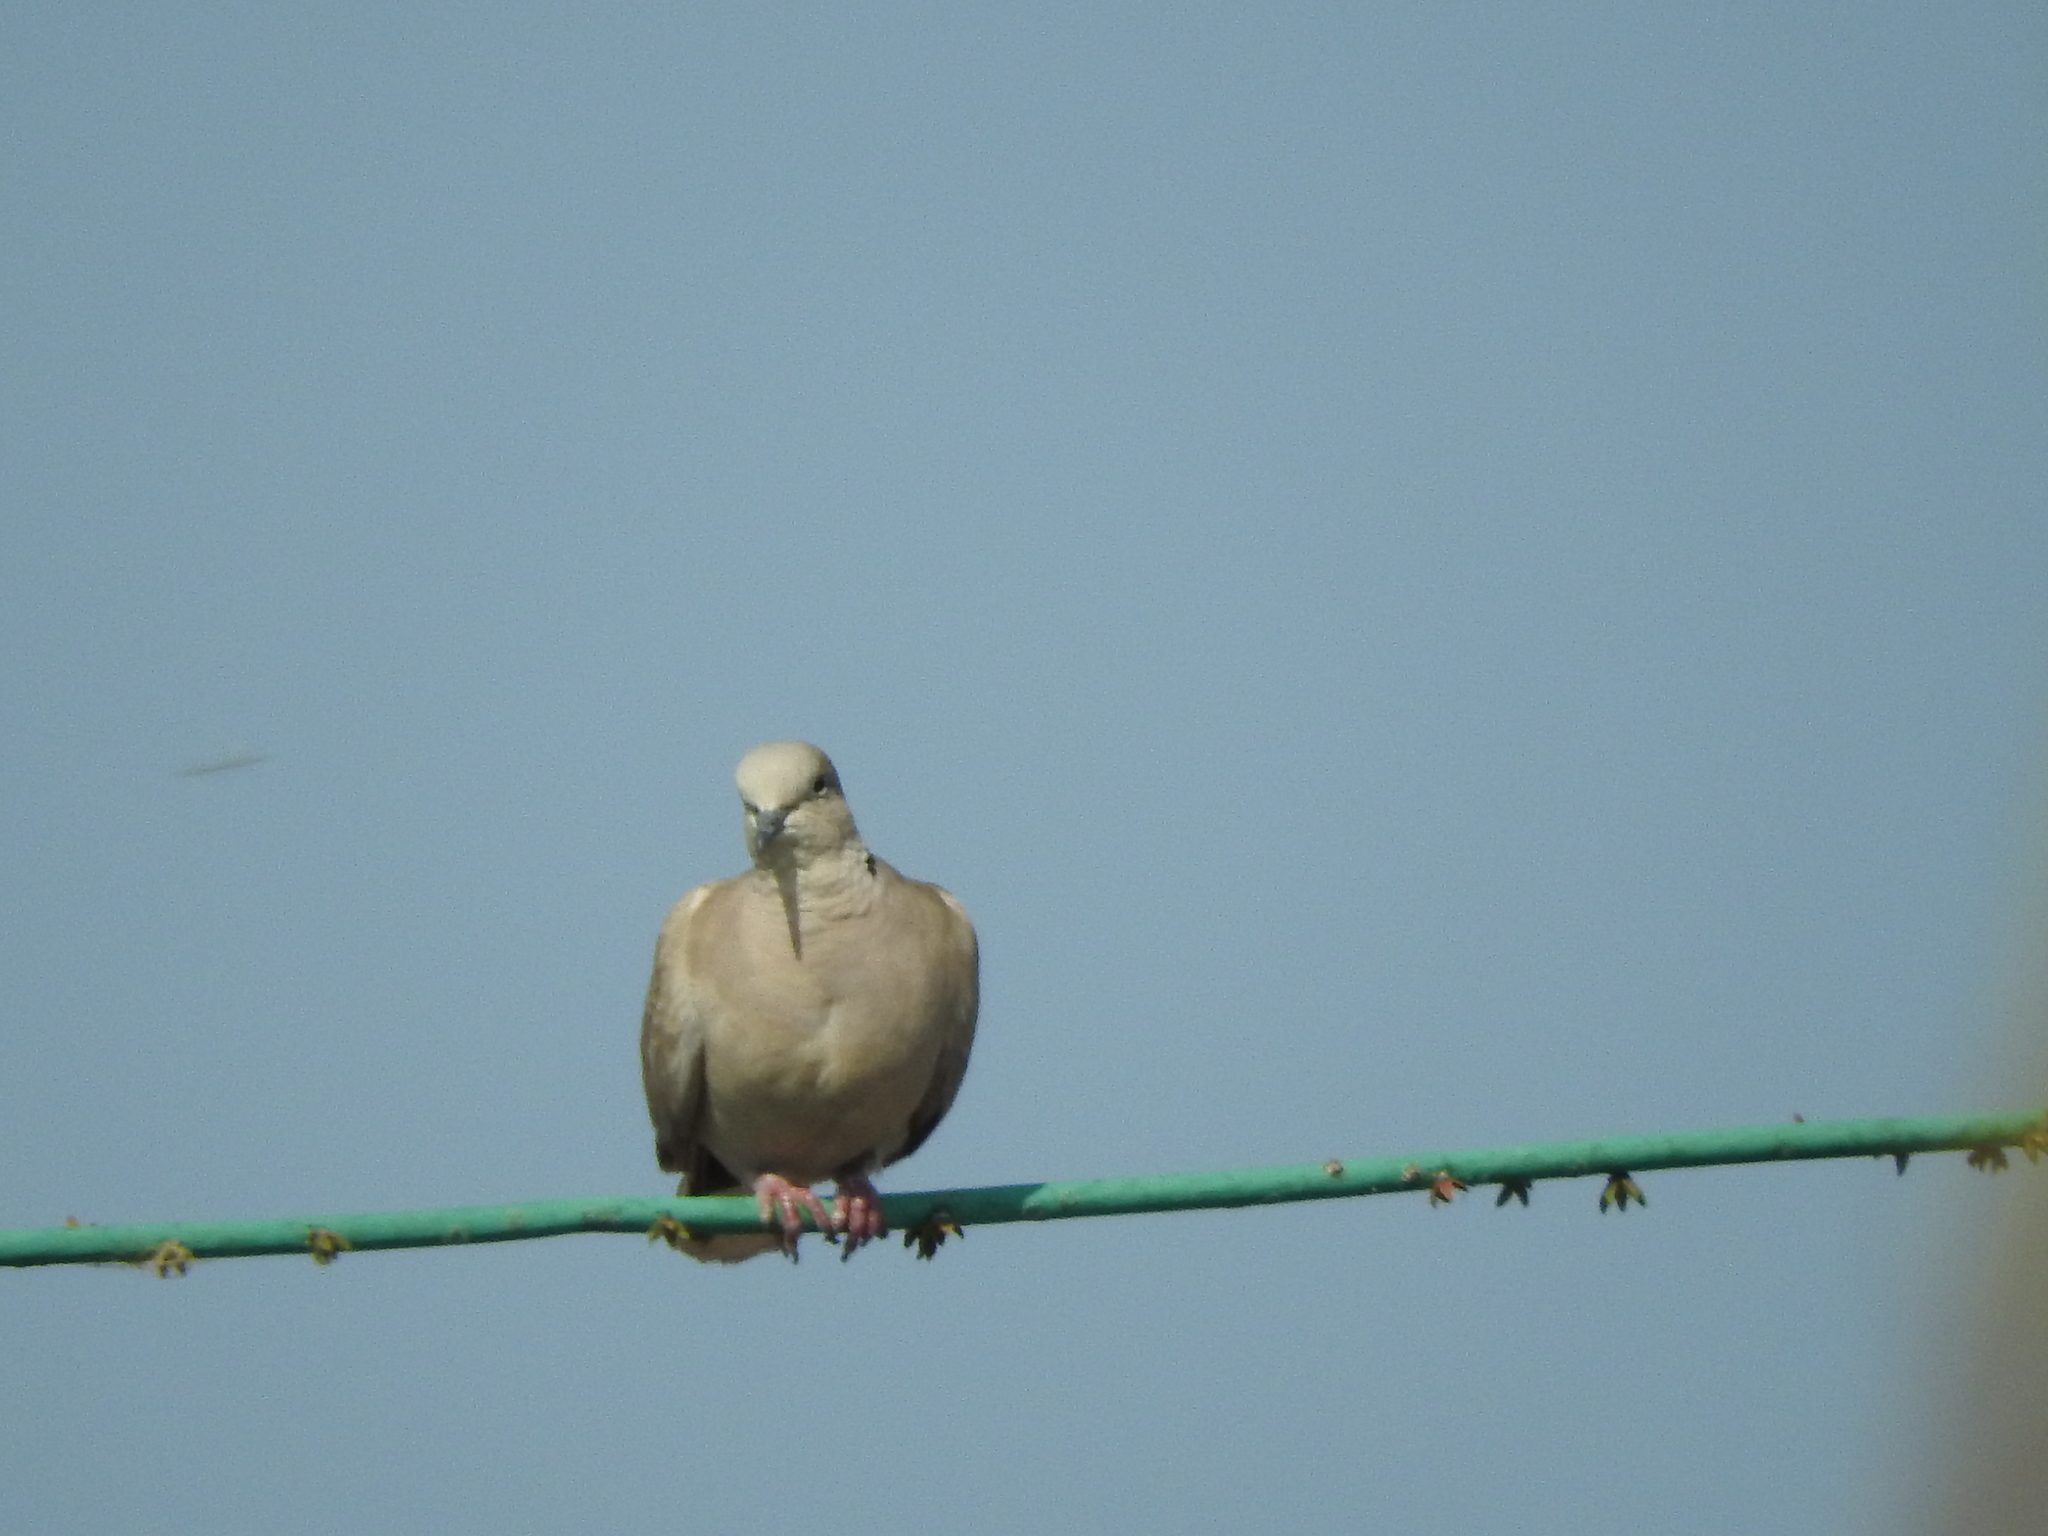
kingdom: Animalia
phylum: Chordata
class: Aves
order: Columbiformes
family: Columbidae
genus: Streptopelia
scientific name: Streptopelia decaocto
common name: Eurasian collared dove
